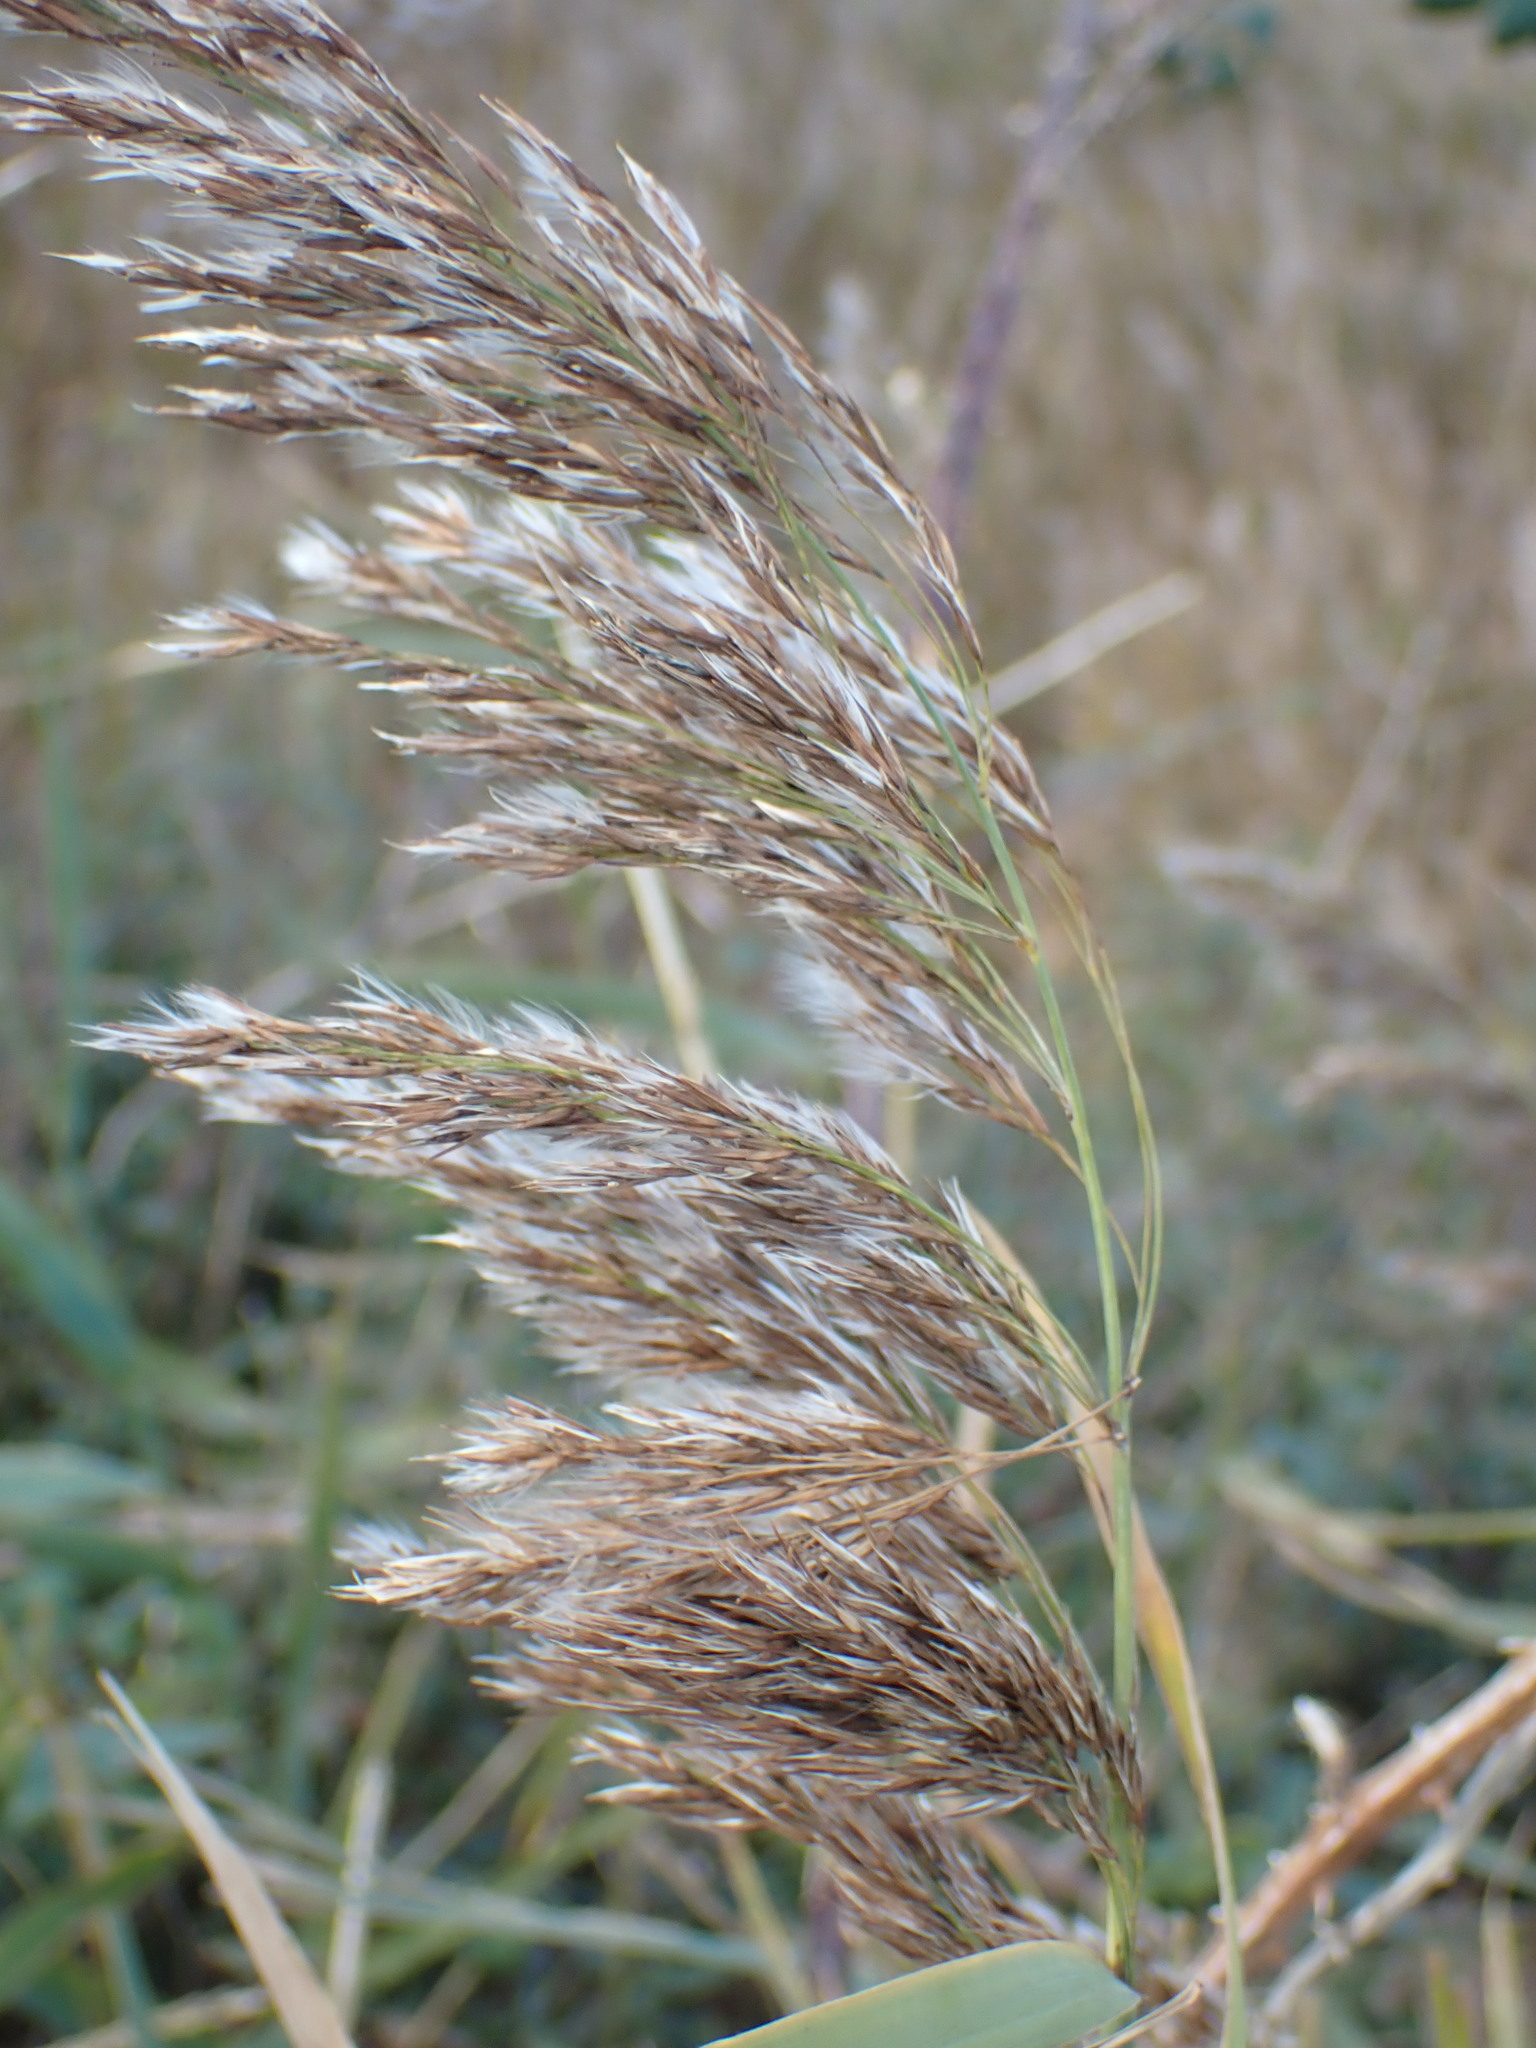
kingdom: Plantae
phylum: Tracheophyta
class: Liliopsida
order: Poales
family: Poaceae
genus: Phragmites
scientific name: Phragmites australis
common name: Common reed
